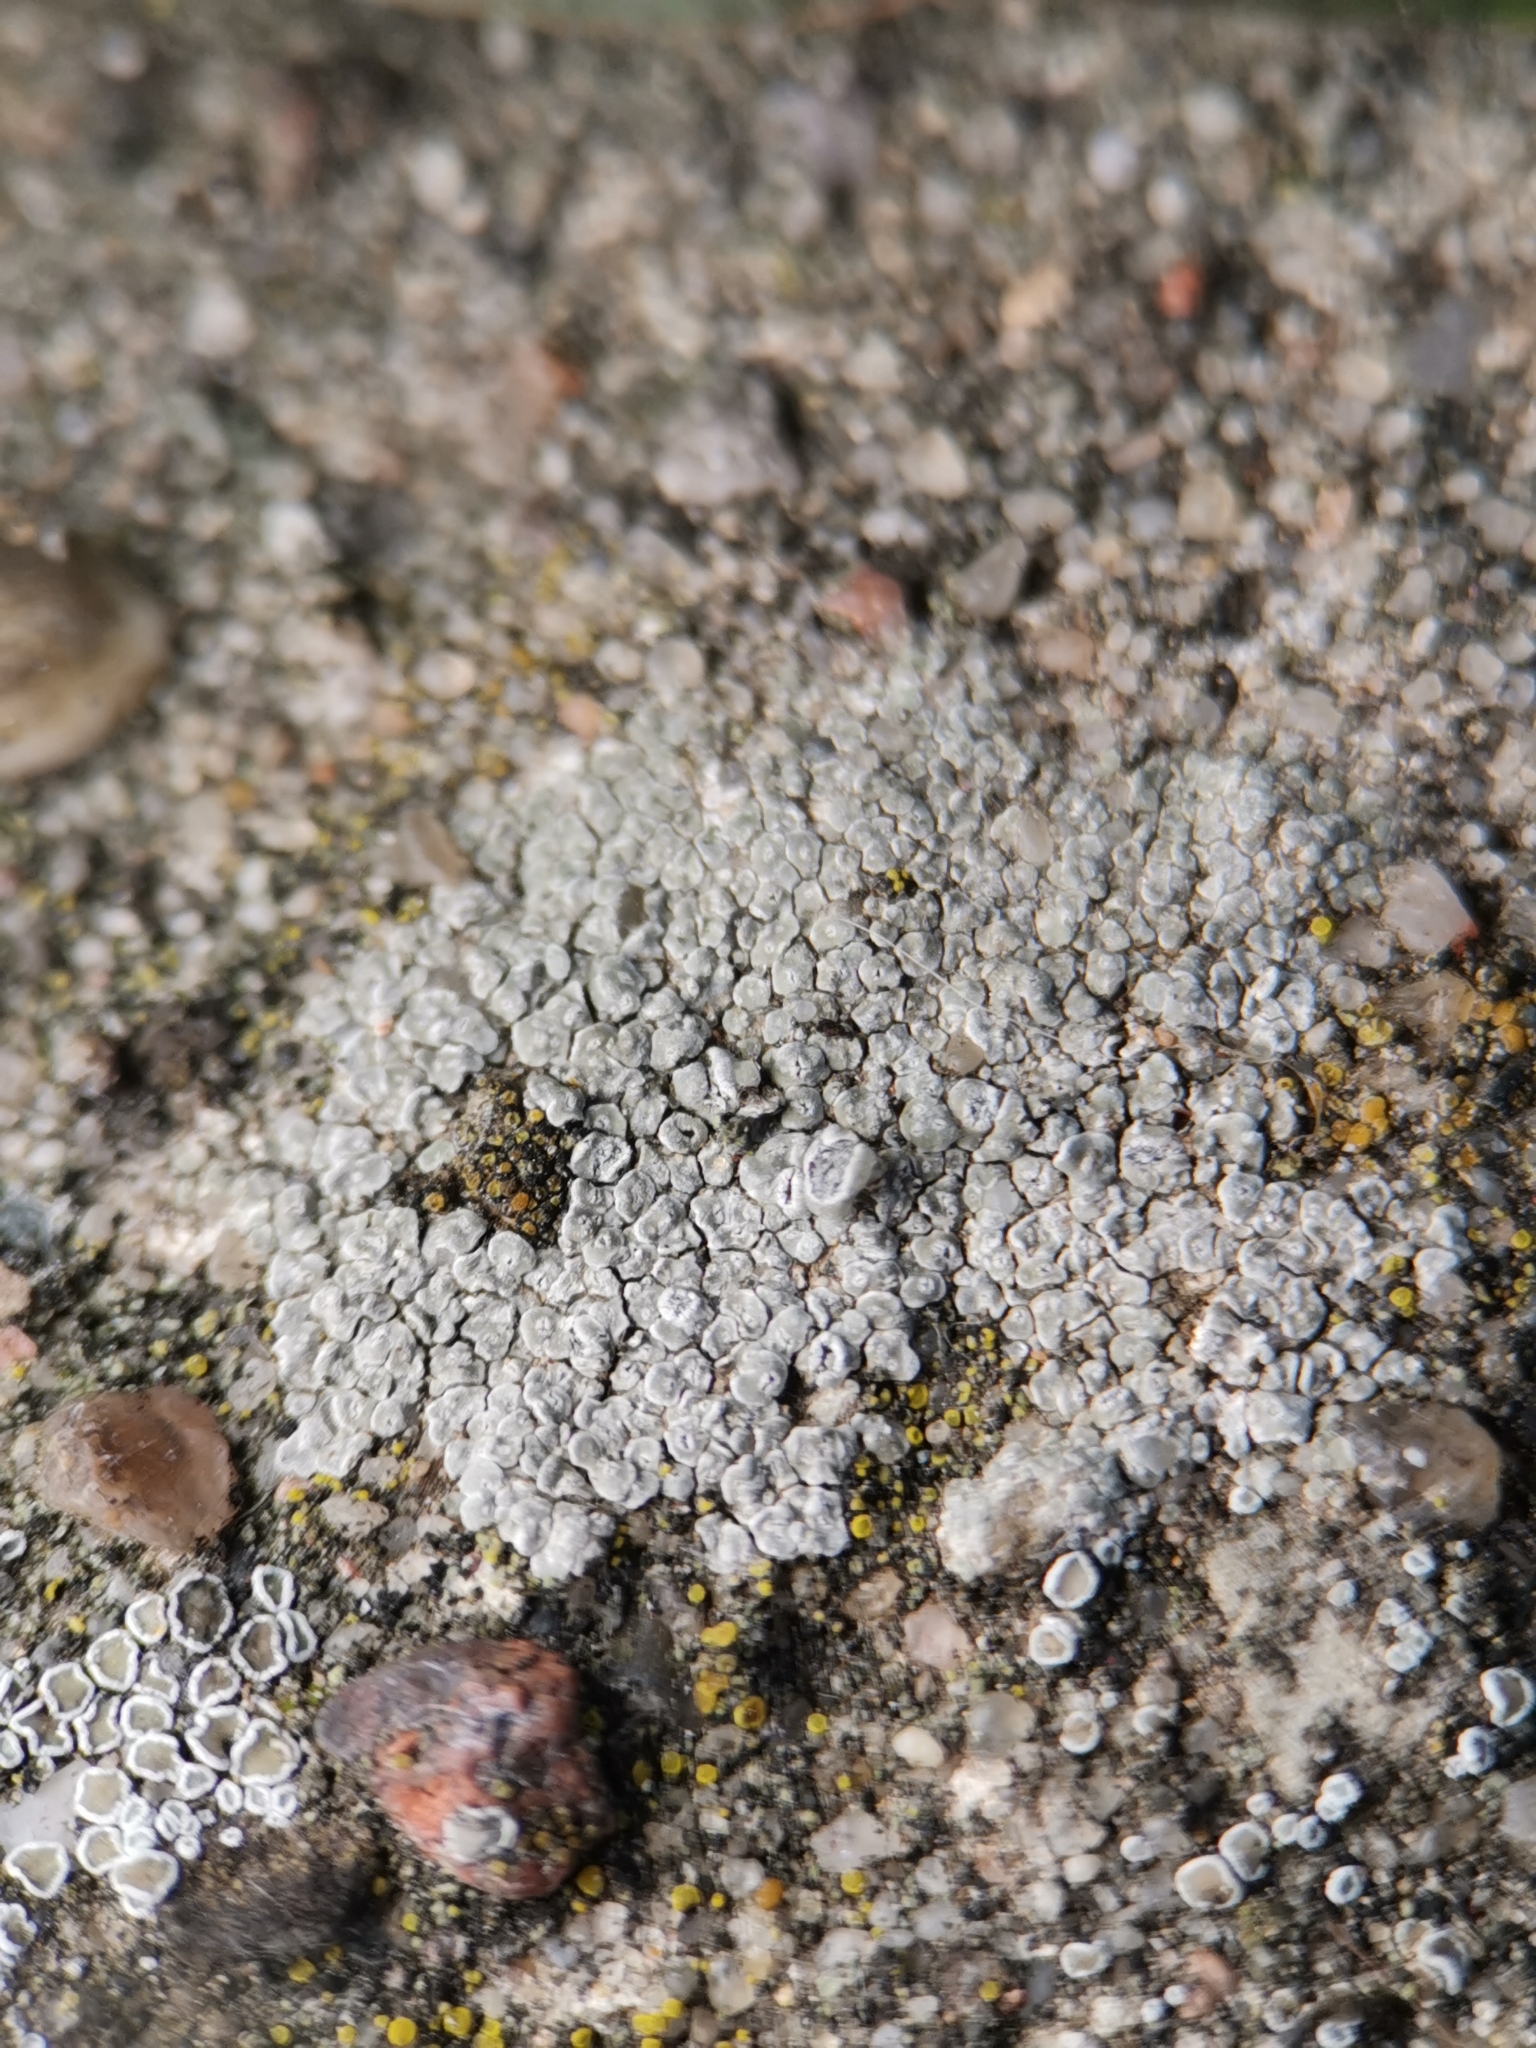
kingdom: Fungi
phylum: Ascomycota
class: Lecanoromycetes
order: Pertusariales
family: Megasporaceae
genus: Circinaria
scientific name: Circinaria contorta
